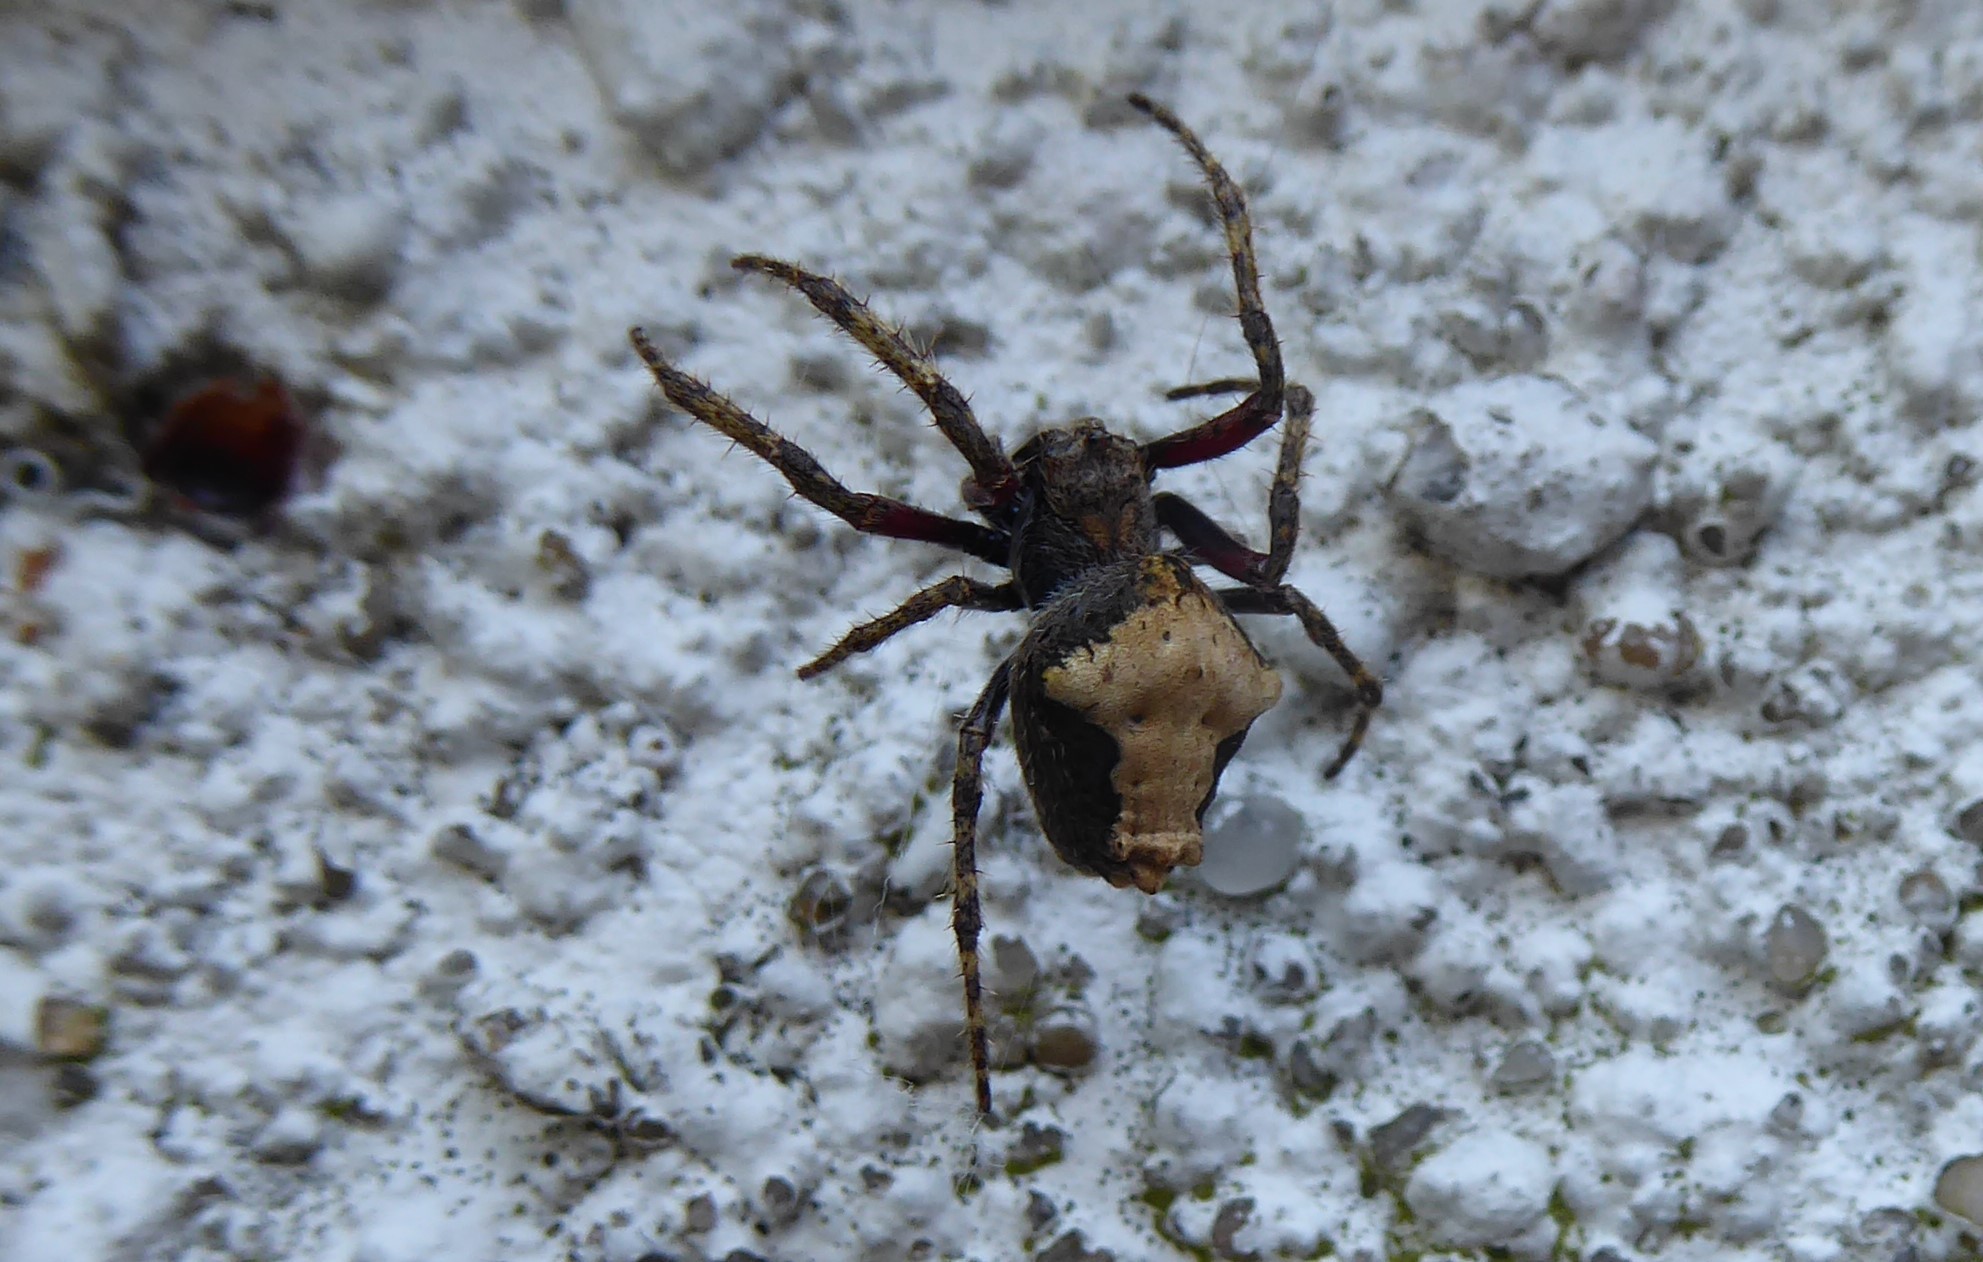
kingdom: Animalia
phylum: Arthropoda
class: Arachnida
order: Araneae
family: Araneidae
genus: Eriophora
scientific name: Eriophora pustulosa
